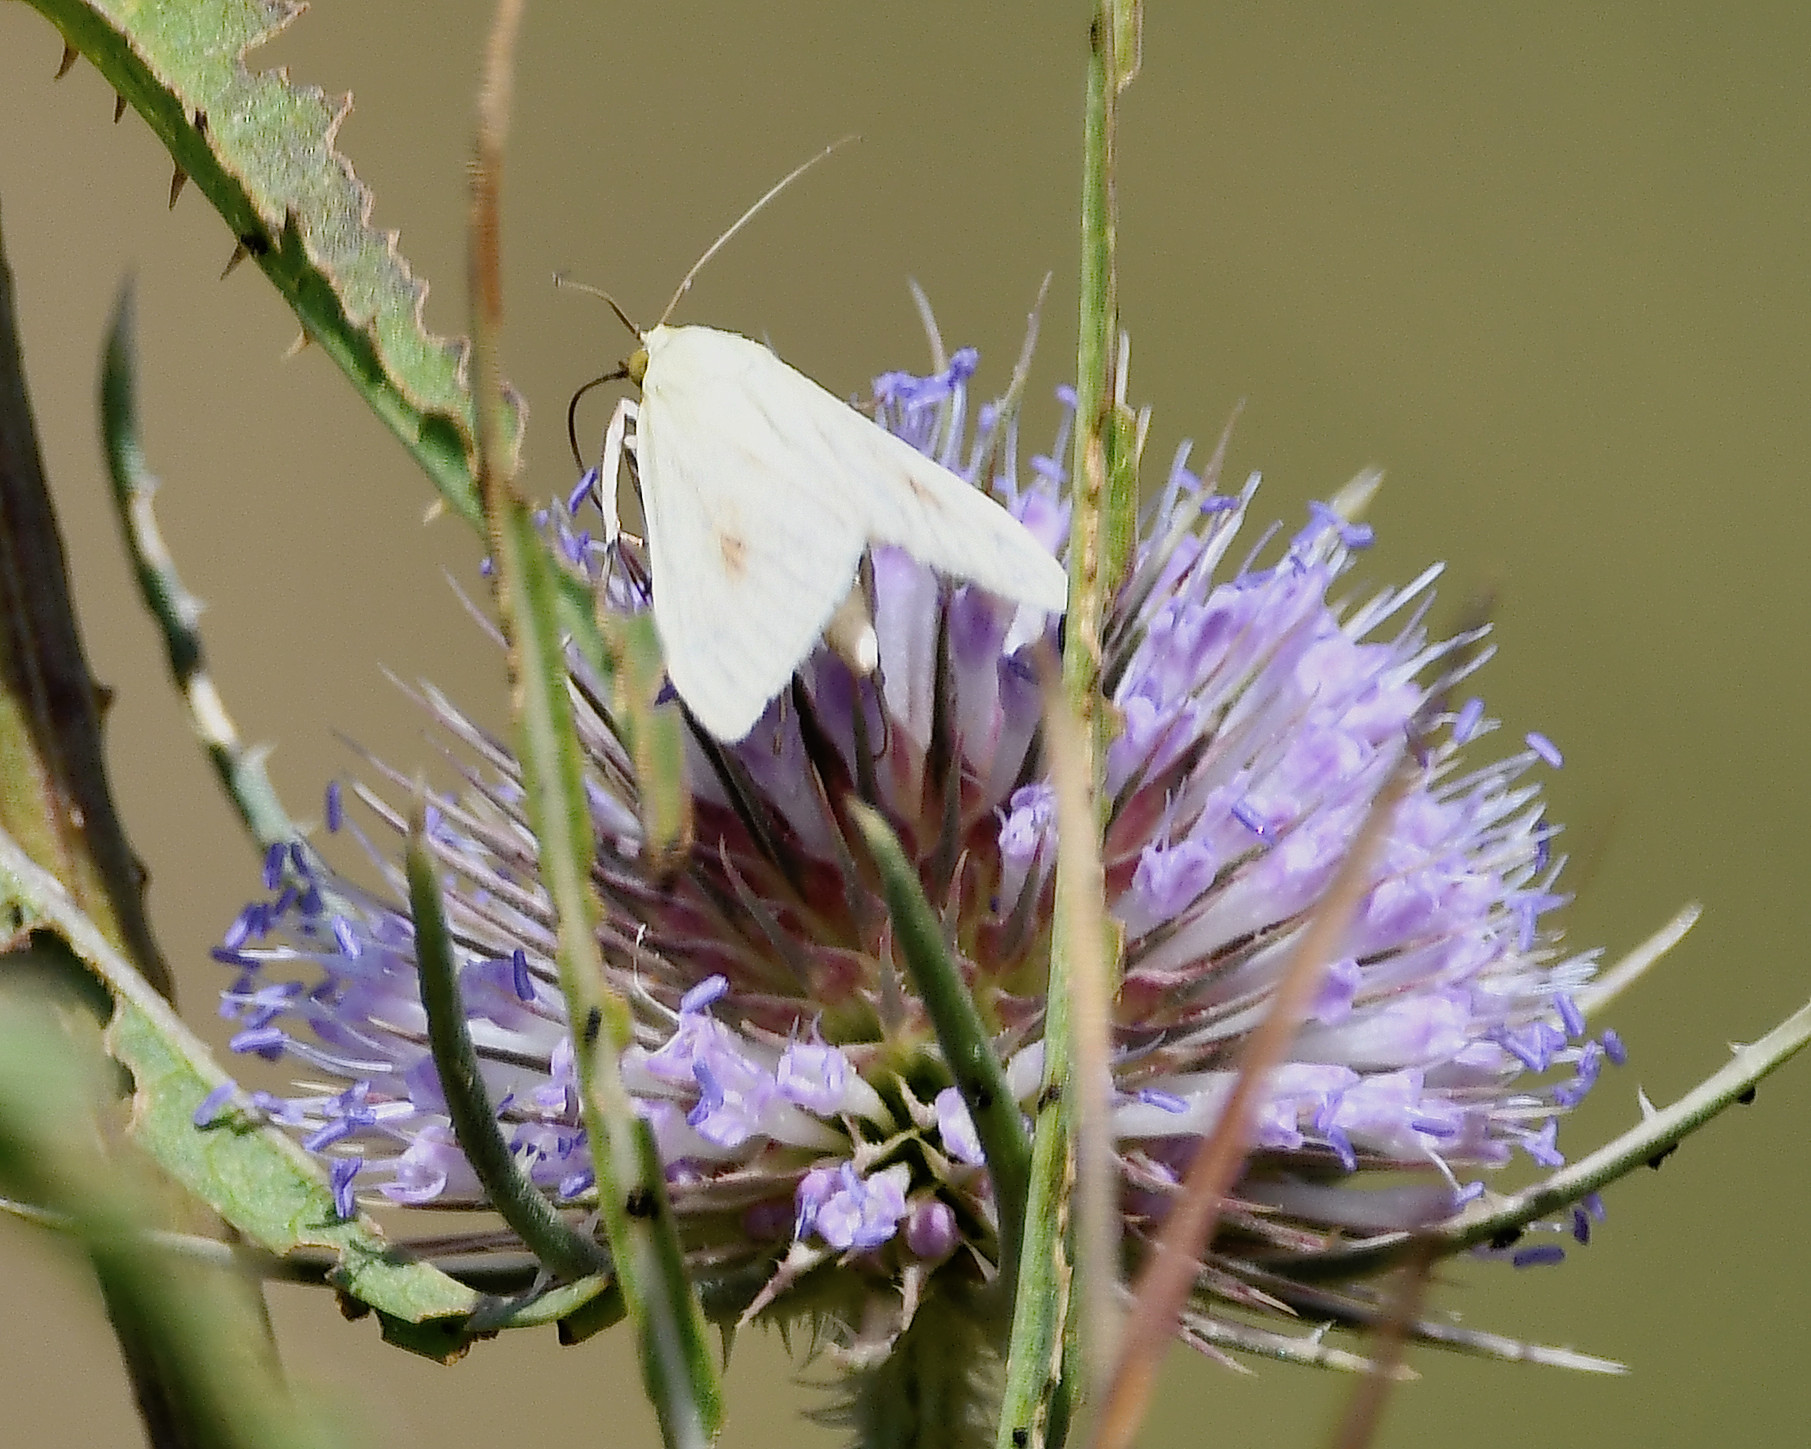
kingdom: Animalia
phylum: Arthropoda
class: Insecta
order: Lepidoptera
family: Crambidae
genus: Sitochroa
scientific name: Sitochroa palealis
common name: Greenish-yellow sitochroa moth
